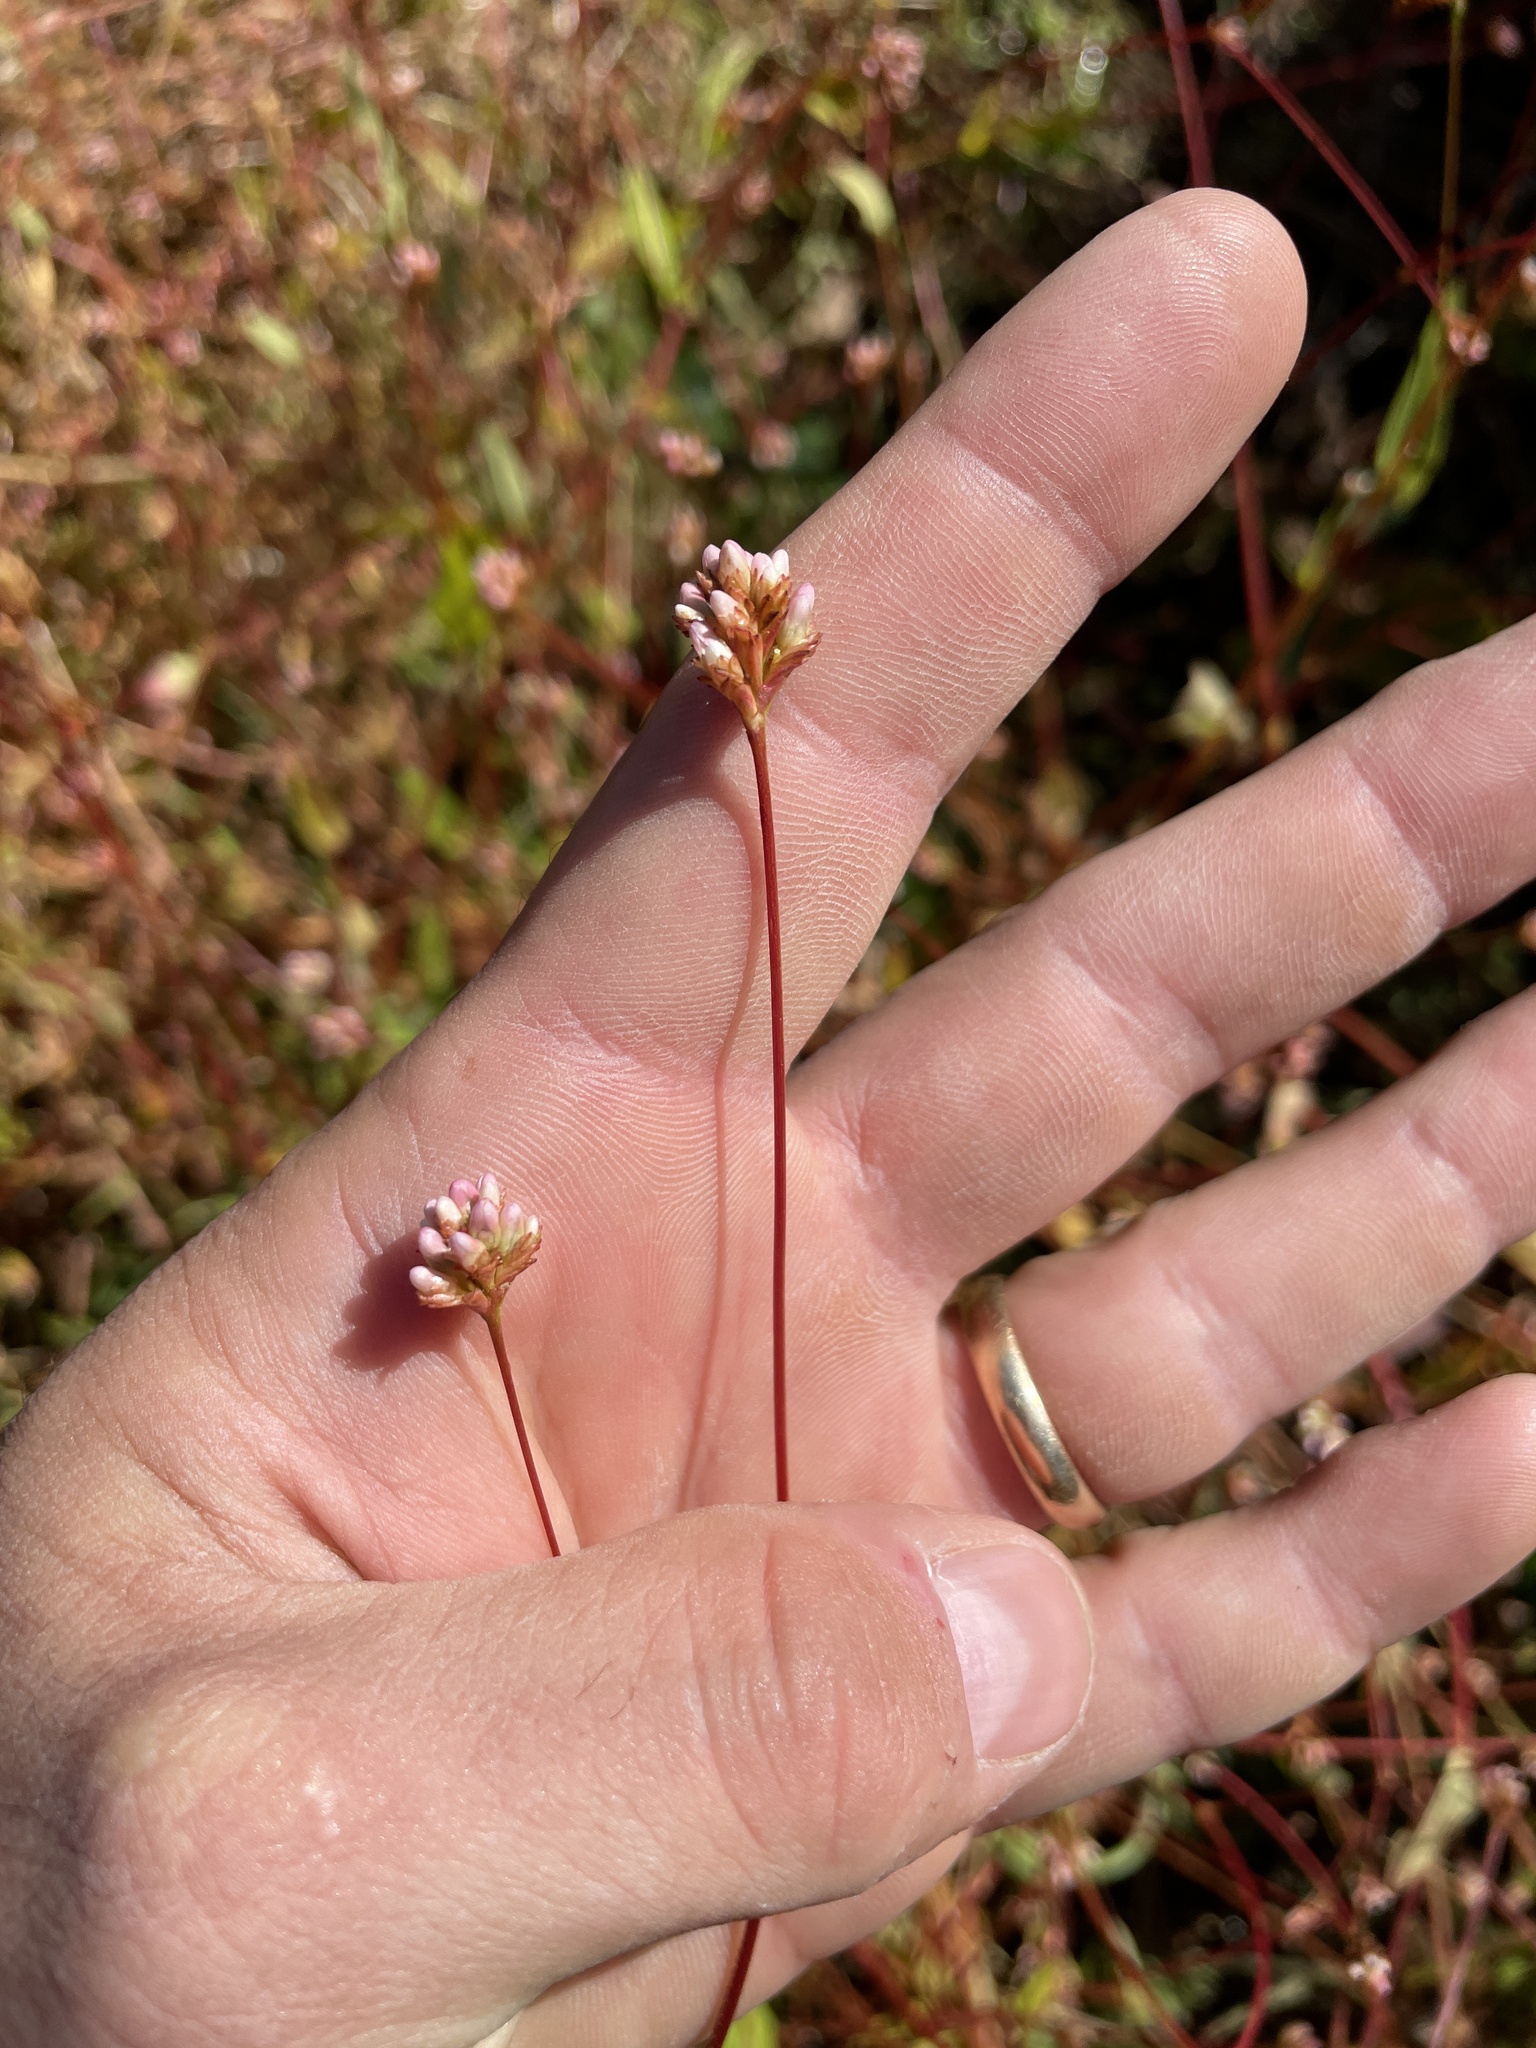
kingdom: Plantae
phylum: Tracheophyta
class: Magnoliopsida
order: Caryophyllales
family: Polygonaceae
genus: Persicaria
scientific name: Persicaria sagittata
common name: American tearthumb
